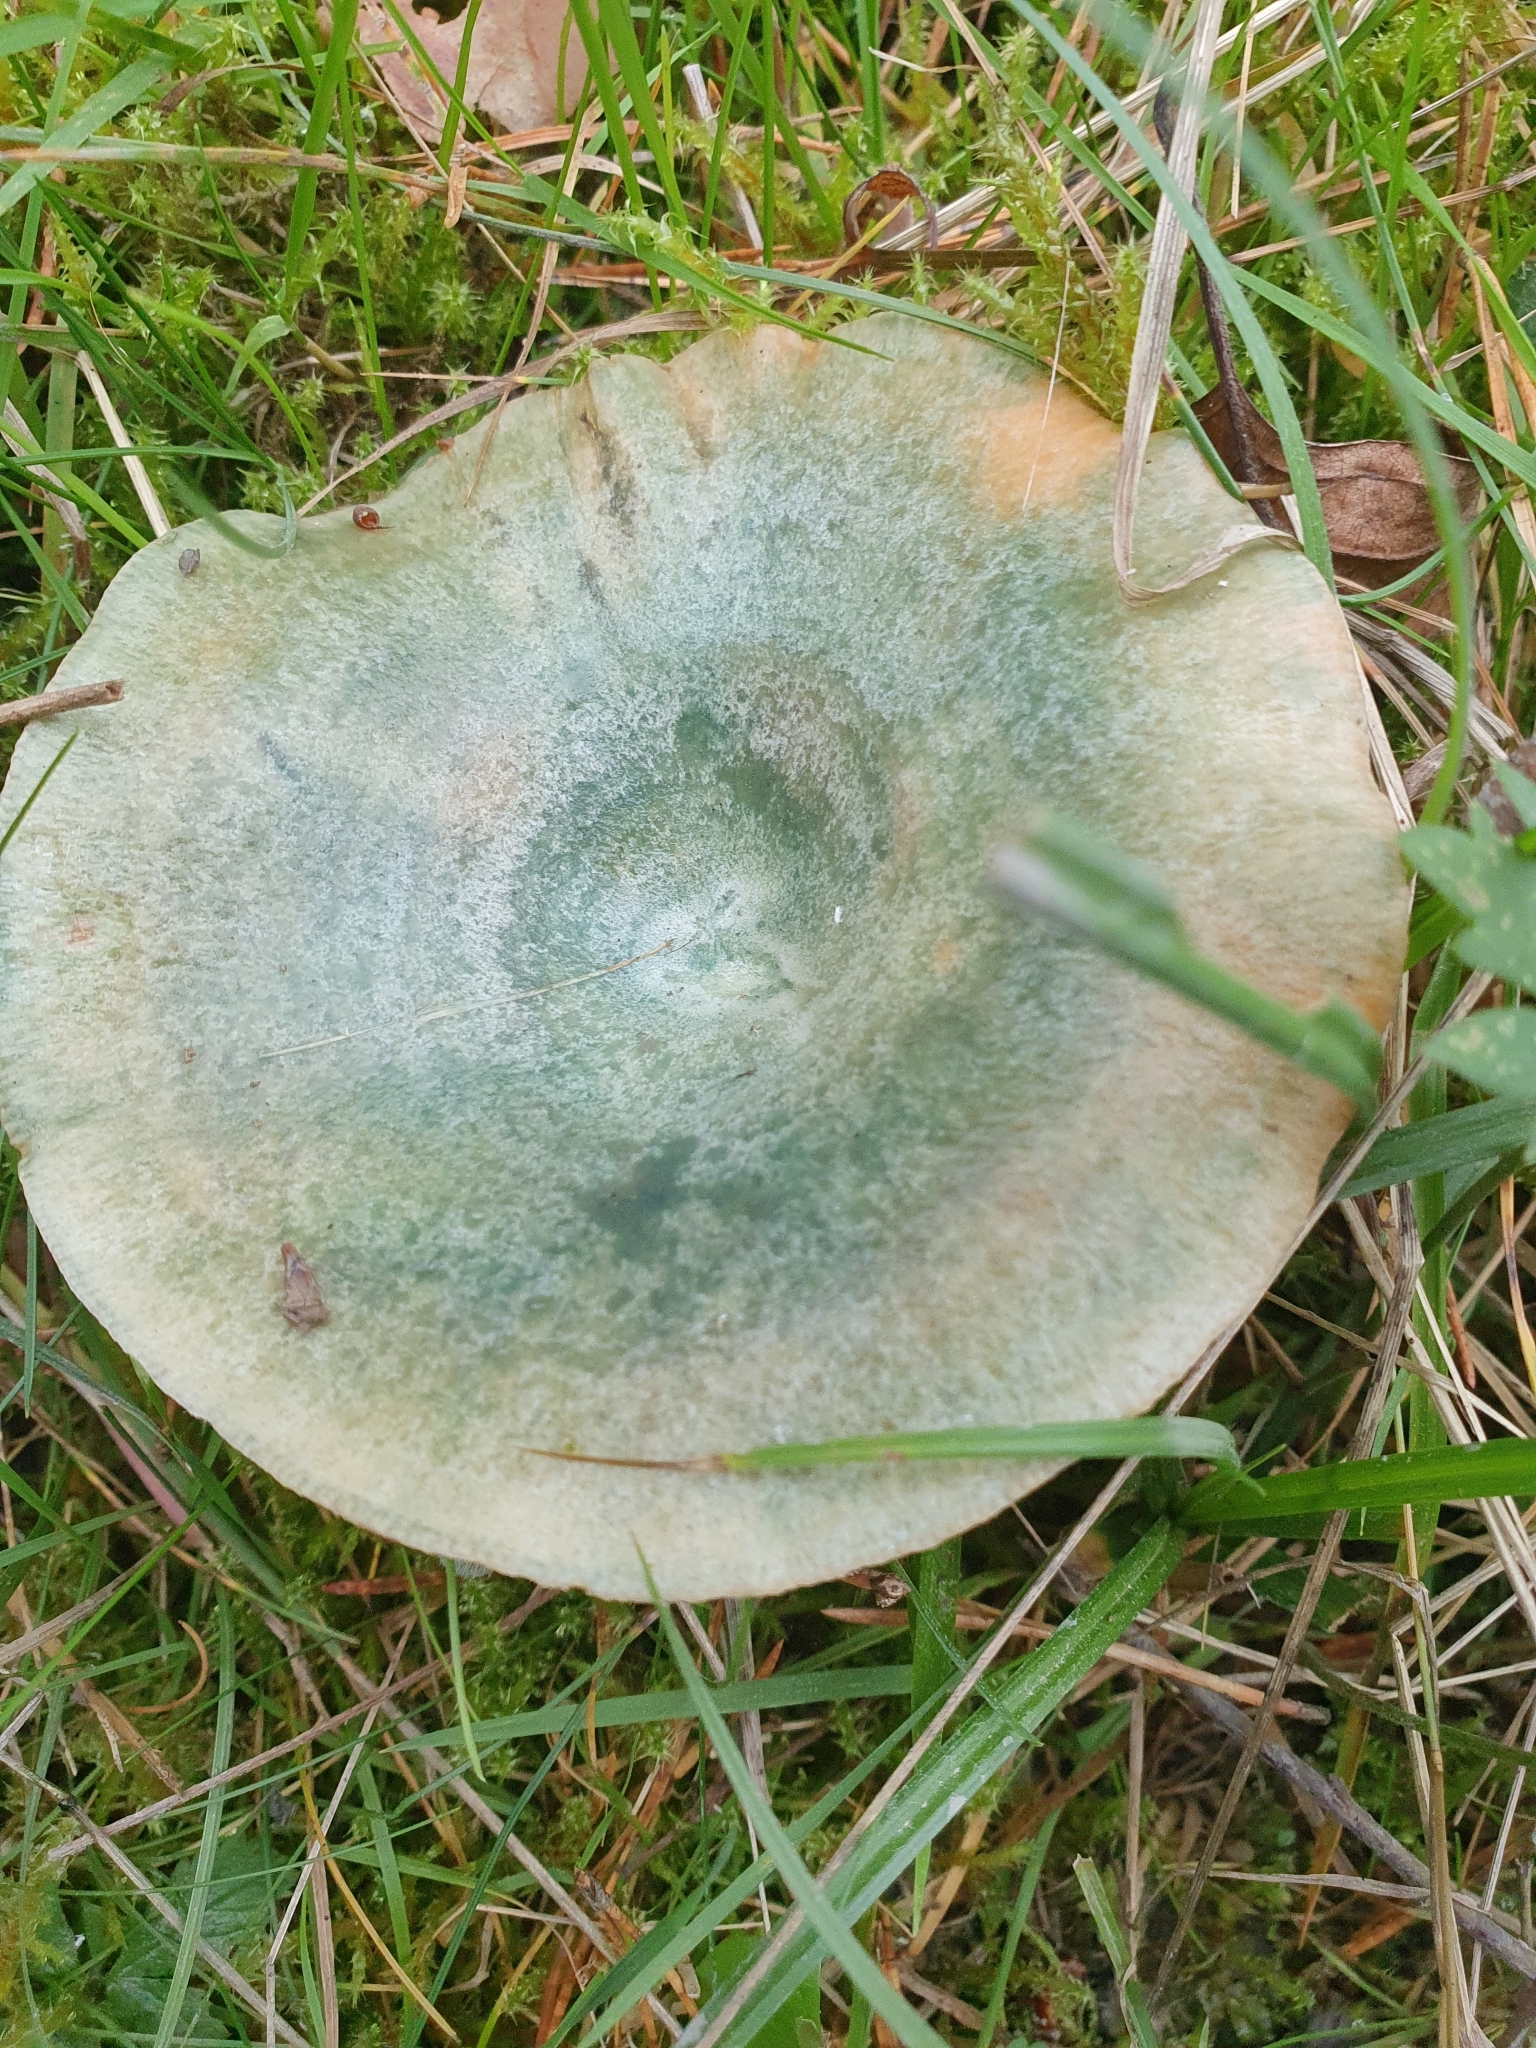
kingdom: Fungi
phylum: Basidiomycota
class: Agaricomycetes
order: Russulales
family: Russulaceae
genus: Lactarius
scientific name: Lactarius deliciosus
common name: Saffron milk-cap
